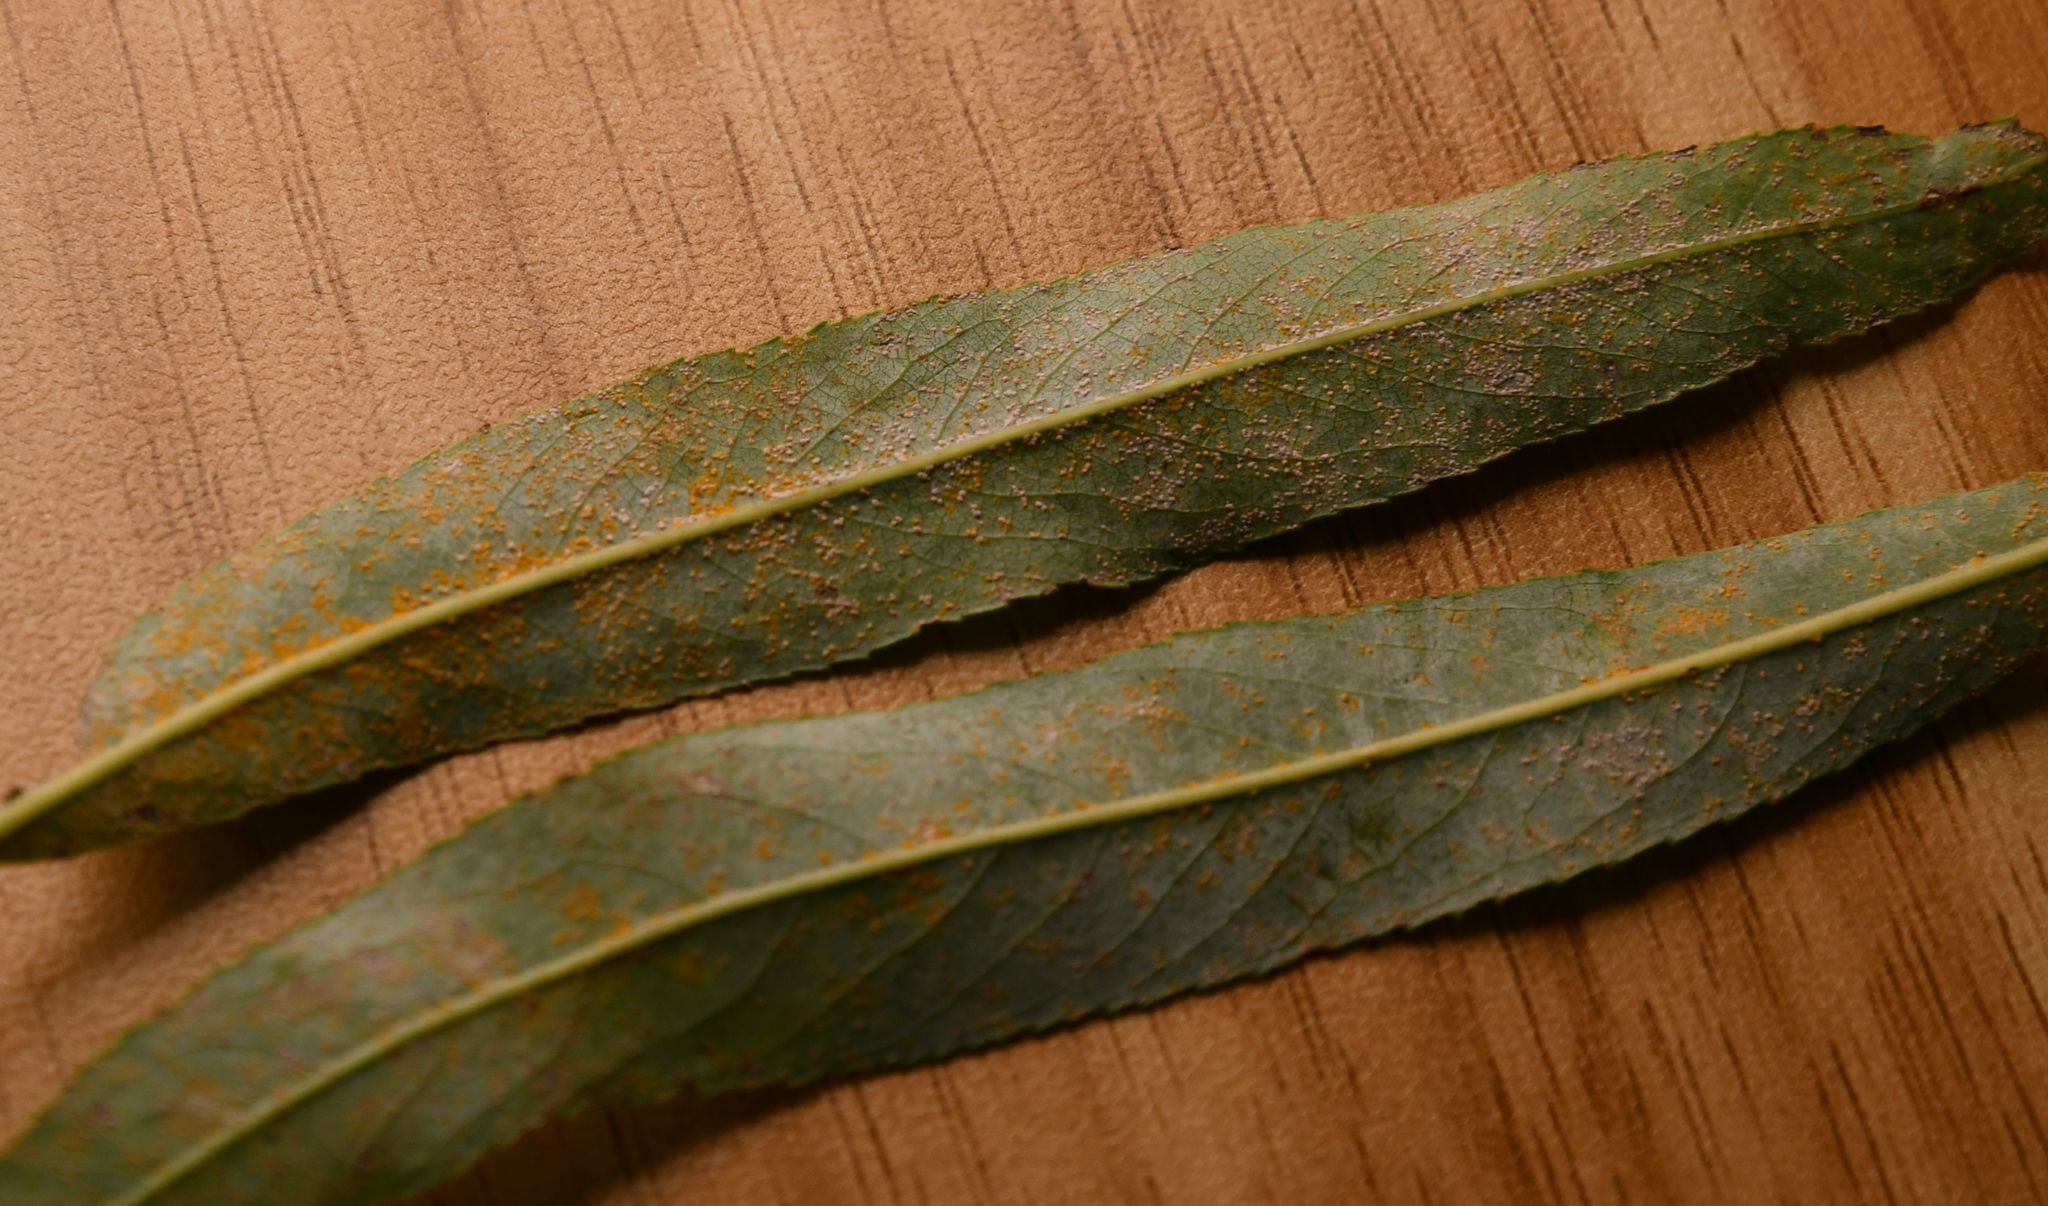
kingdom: Fungi
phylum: Basidiomycota
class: Pucciniomycetes
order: Pucciniales
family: Melampsoraceae
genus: Melampsora
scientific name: Melampsora coleosporioides
